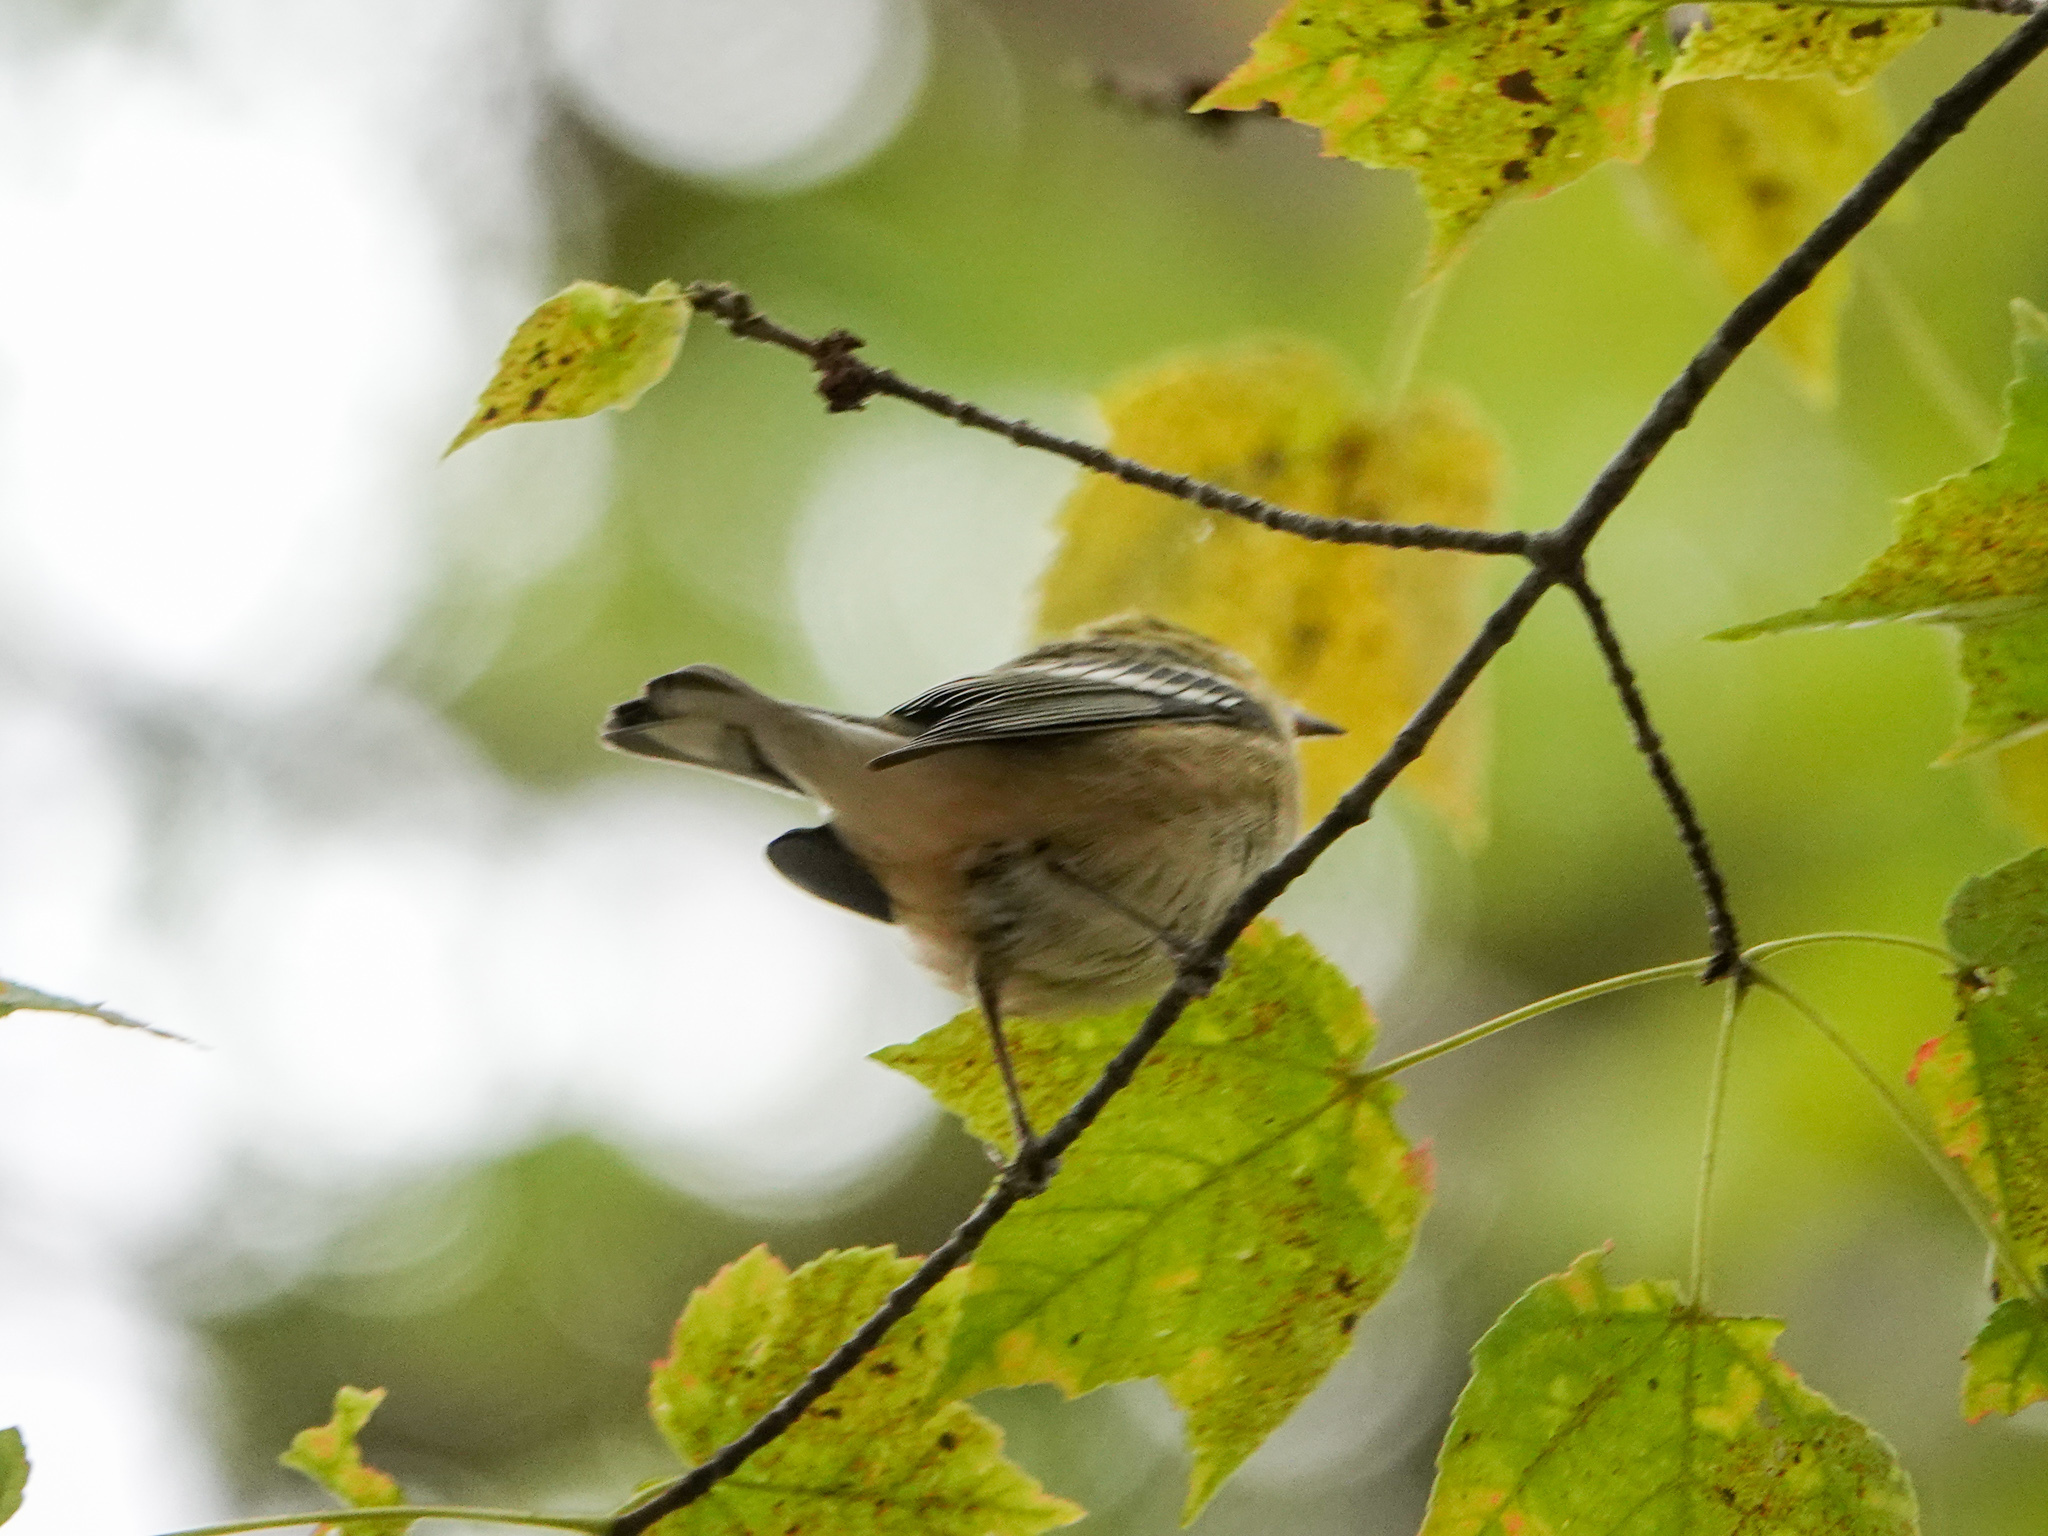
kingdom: Animalia
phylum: Chordata
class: Aves
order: Passeriformes
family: Parulidae
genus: Setophaga
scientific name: Setophaga castanea
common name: Bay-breasted warbler
